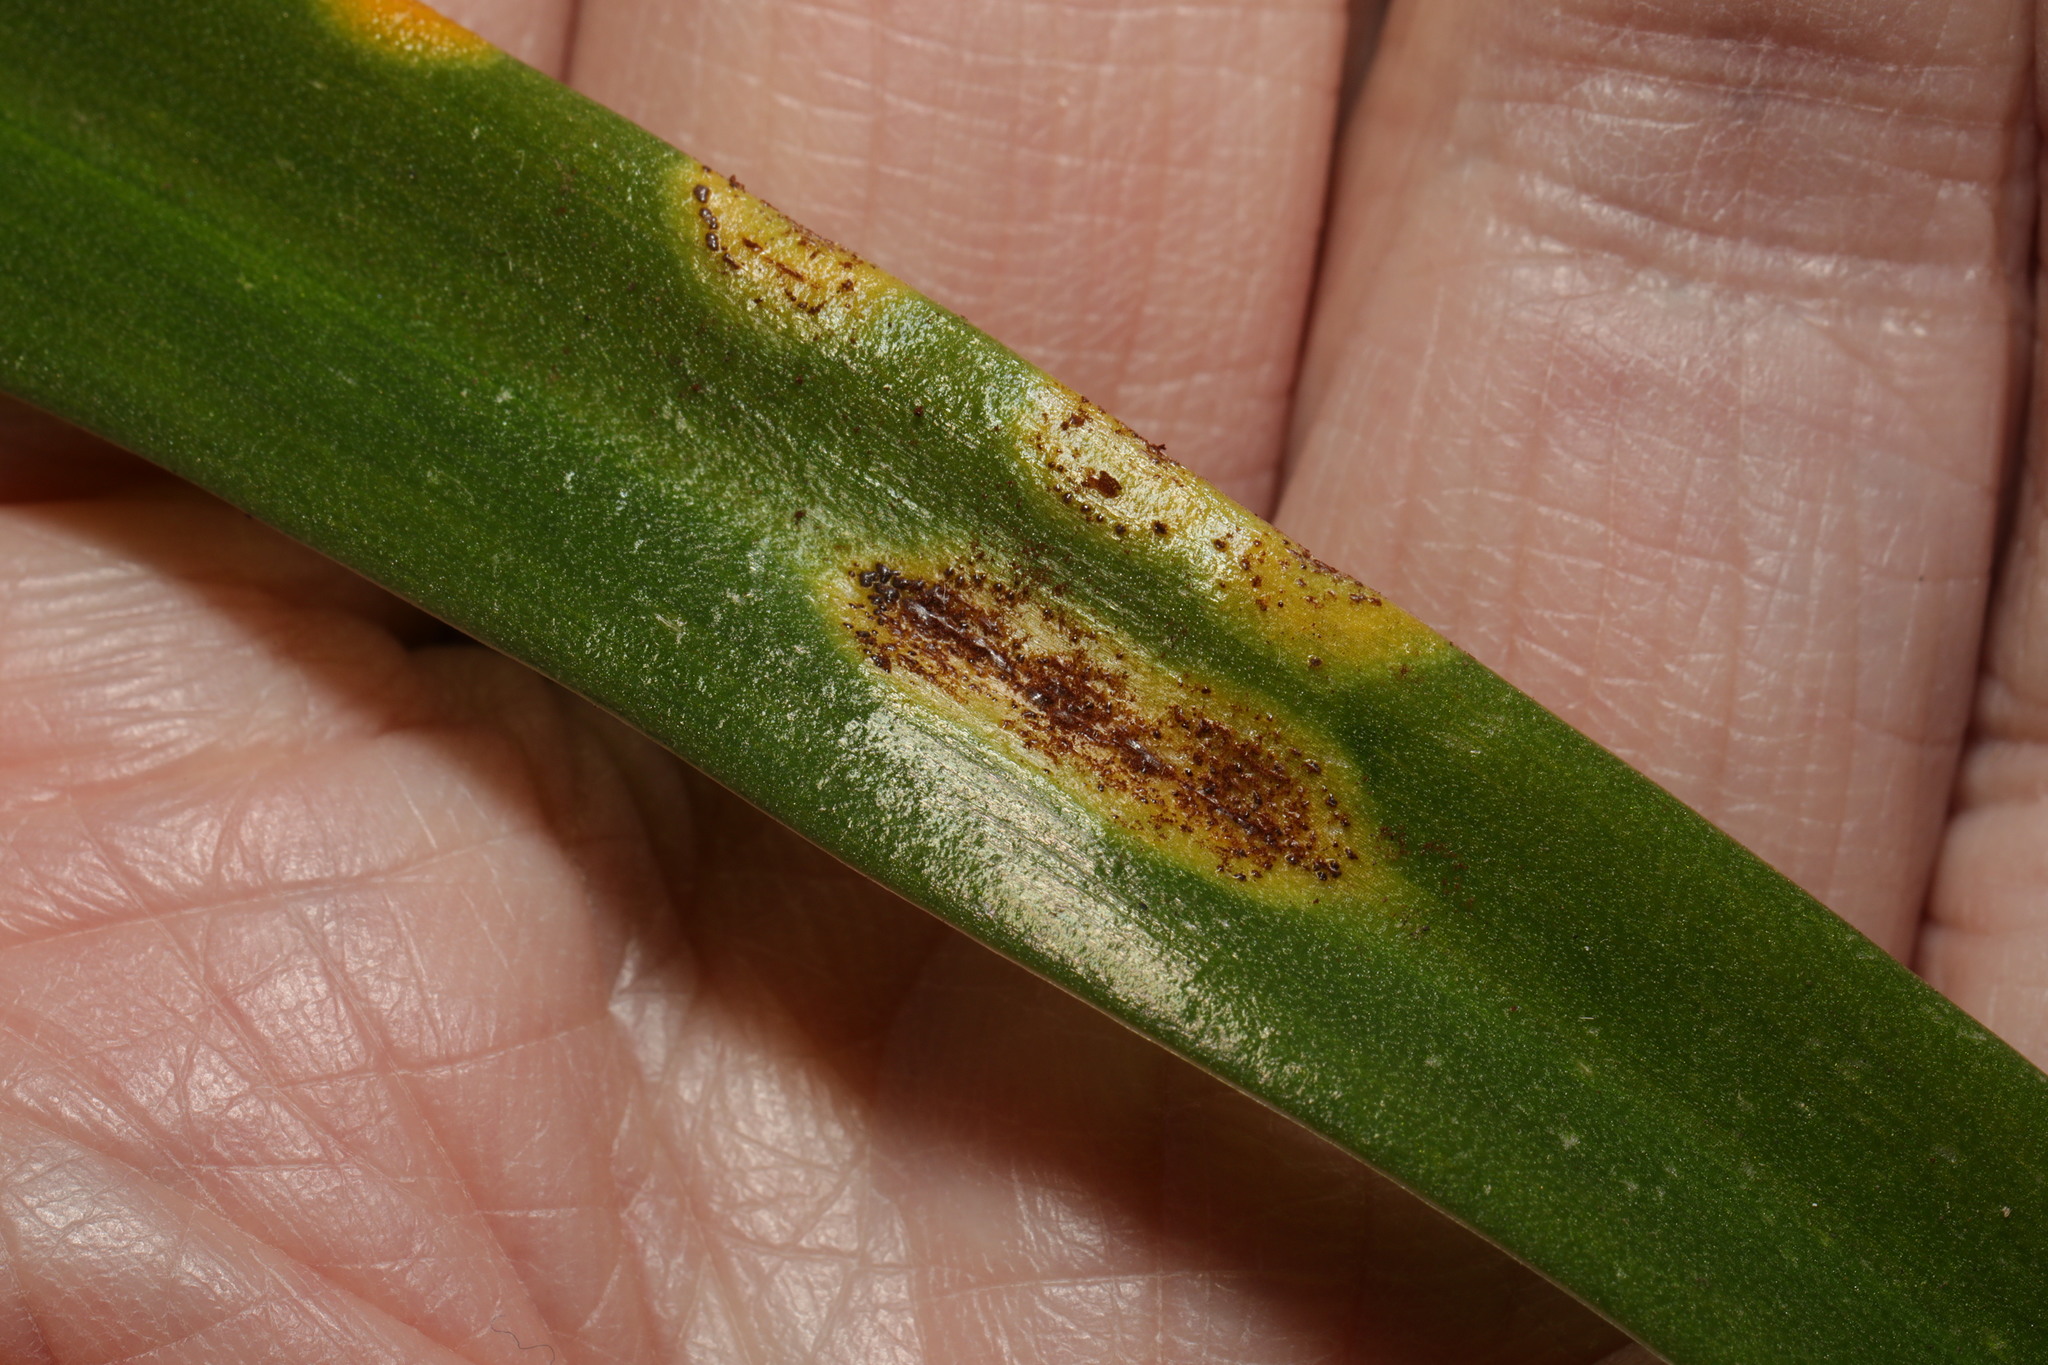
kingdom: Fungi
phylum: Basidiomycota
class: Pucciniomycetes
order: Pucciniales
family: Pucciniaceae
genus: Uromyces
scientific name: Uromyces hyacinthi
